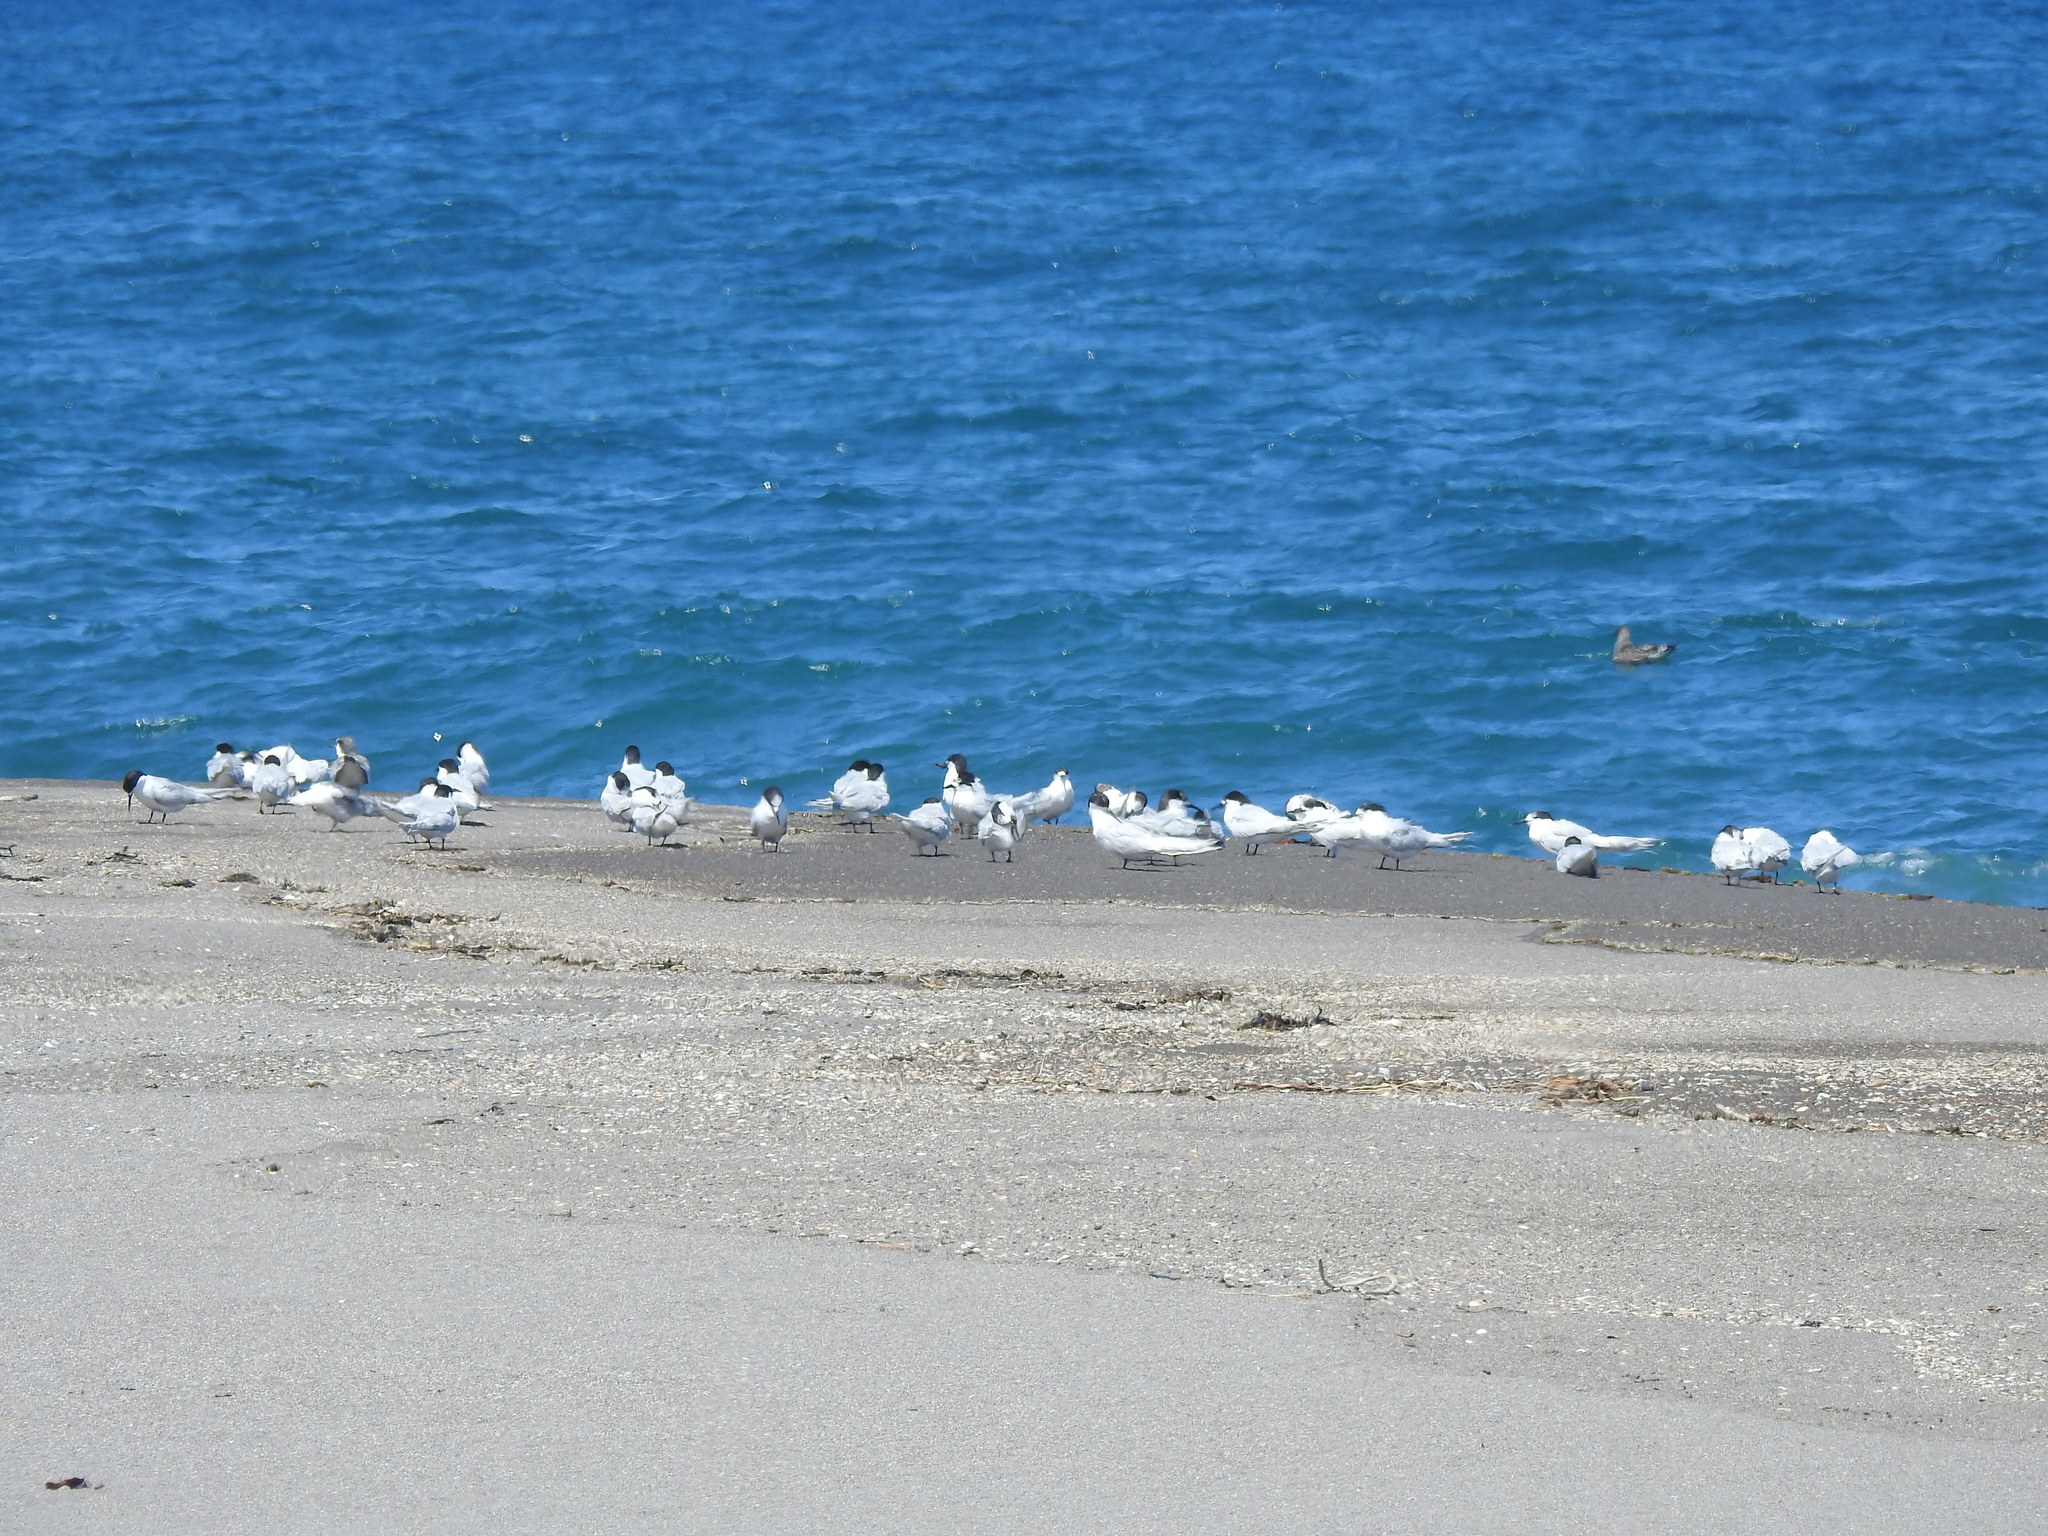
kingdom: Animalia
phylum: Chordata
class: Aves
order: Charadriiformes
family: Laridae
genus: Sterna
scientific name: Sterna striata
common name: White-fronted tern
